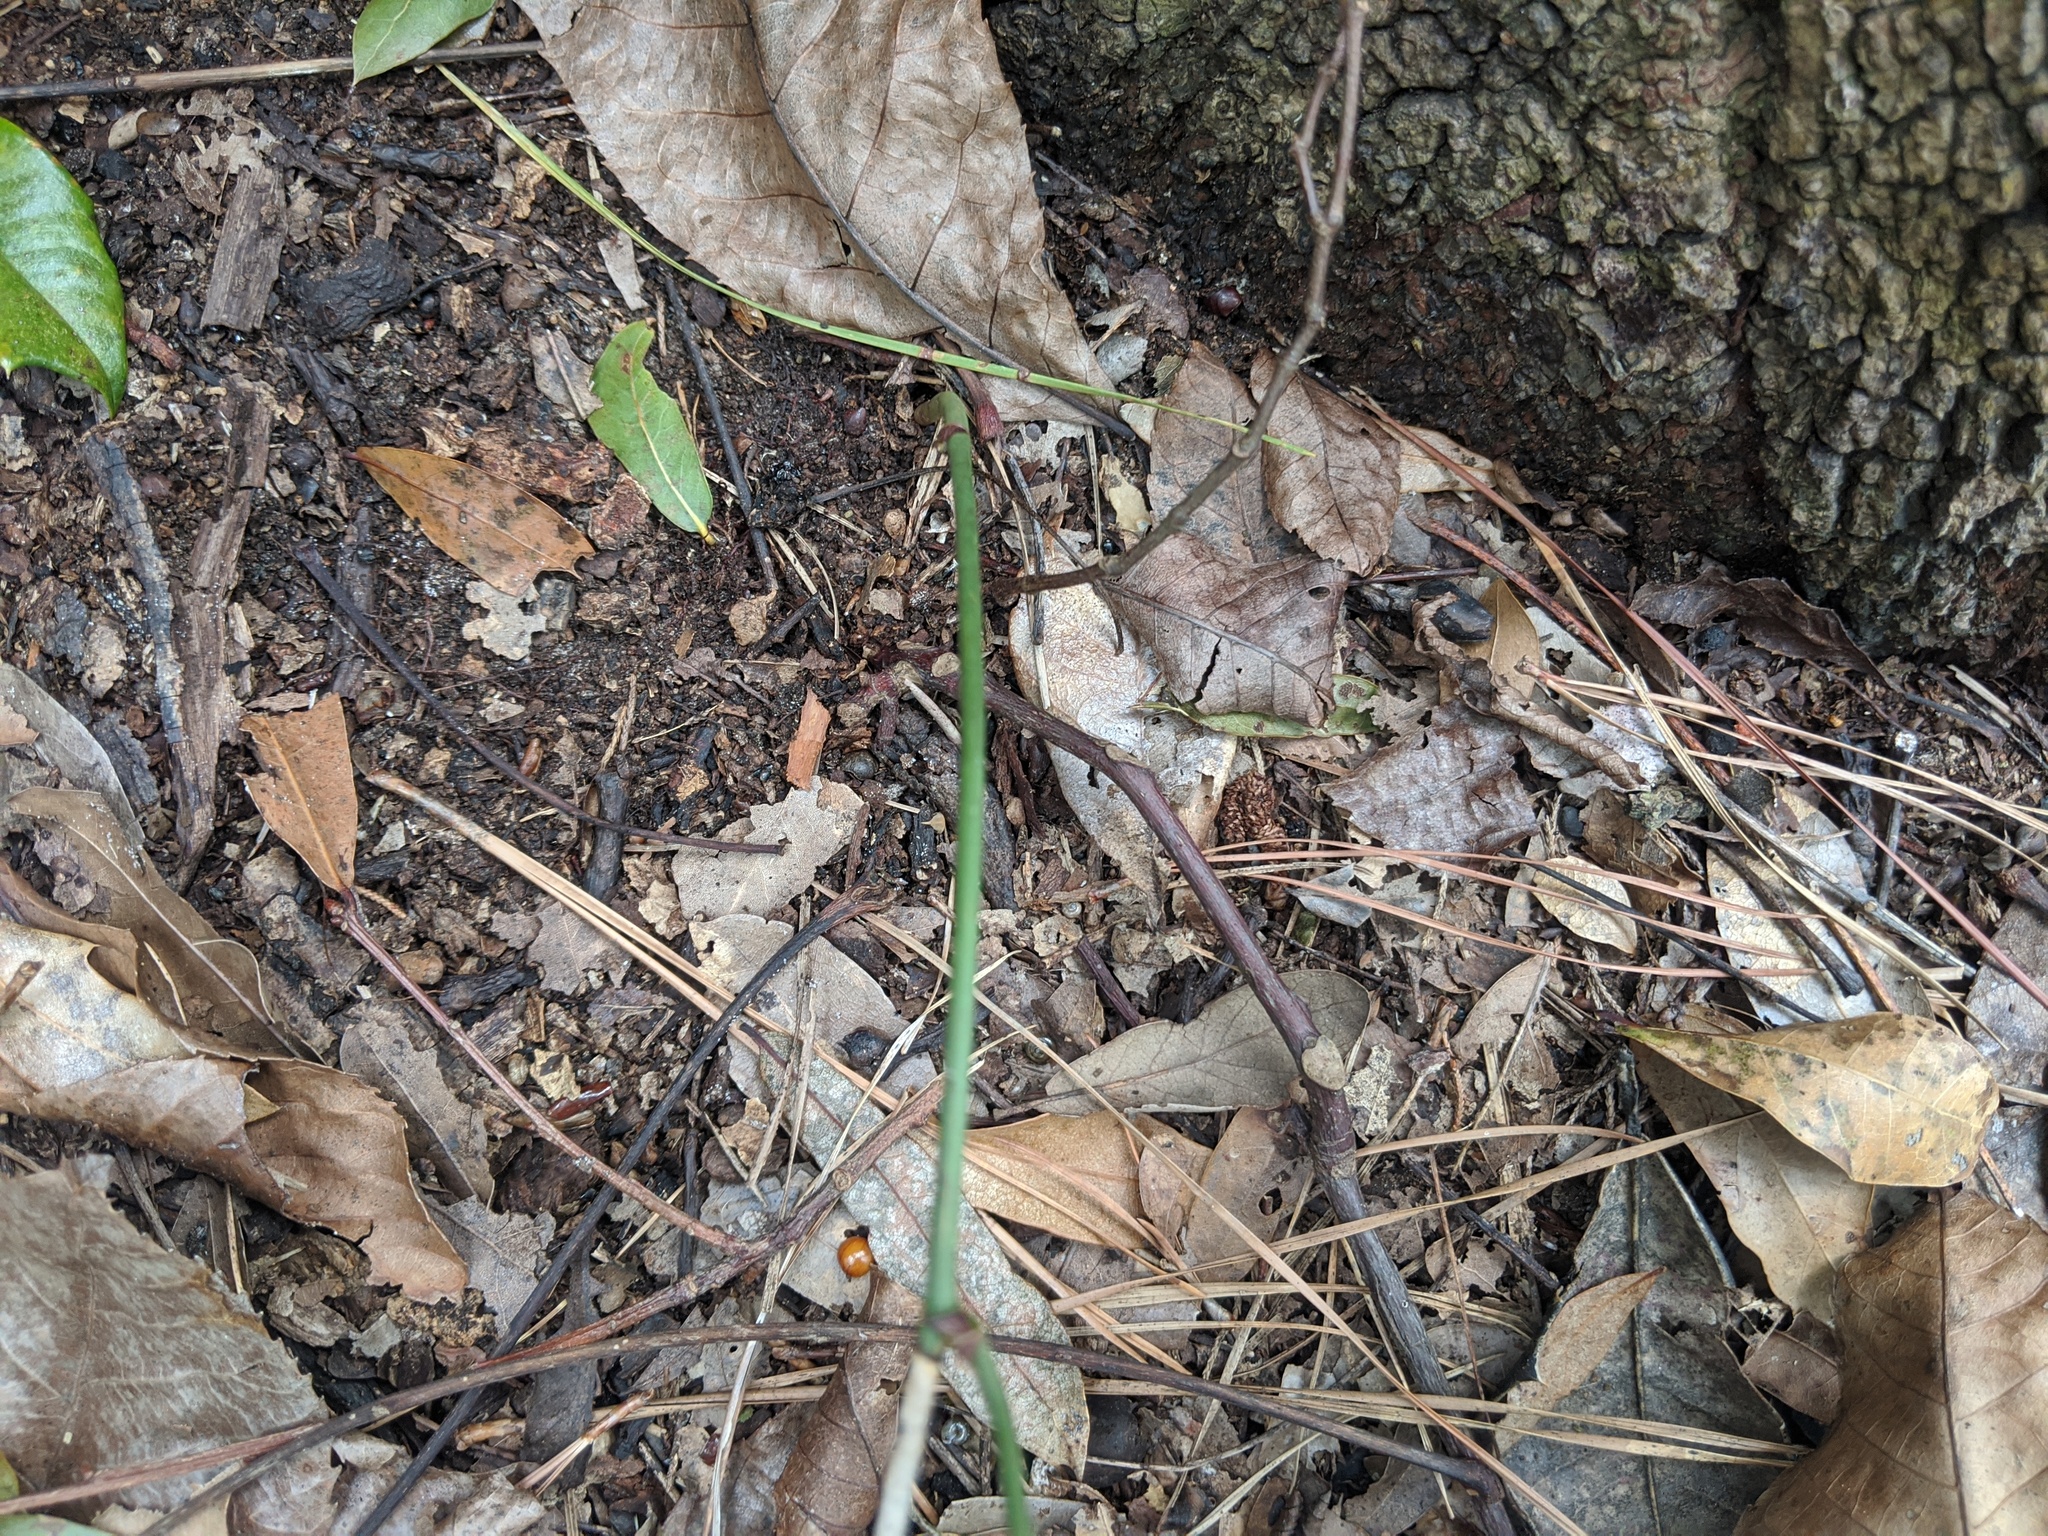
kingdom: Plantae
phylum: Tracheophyta
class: Liliopsida
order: Liliales
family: Smilacaceae
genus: Smilax
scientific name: Smilax maritima
